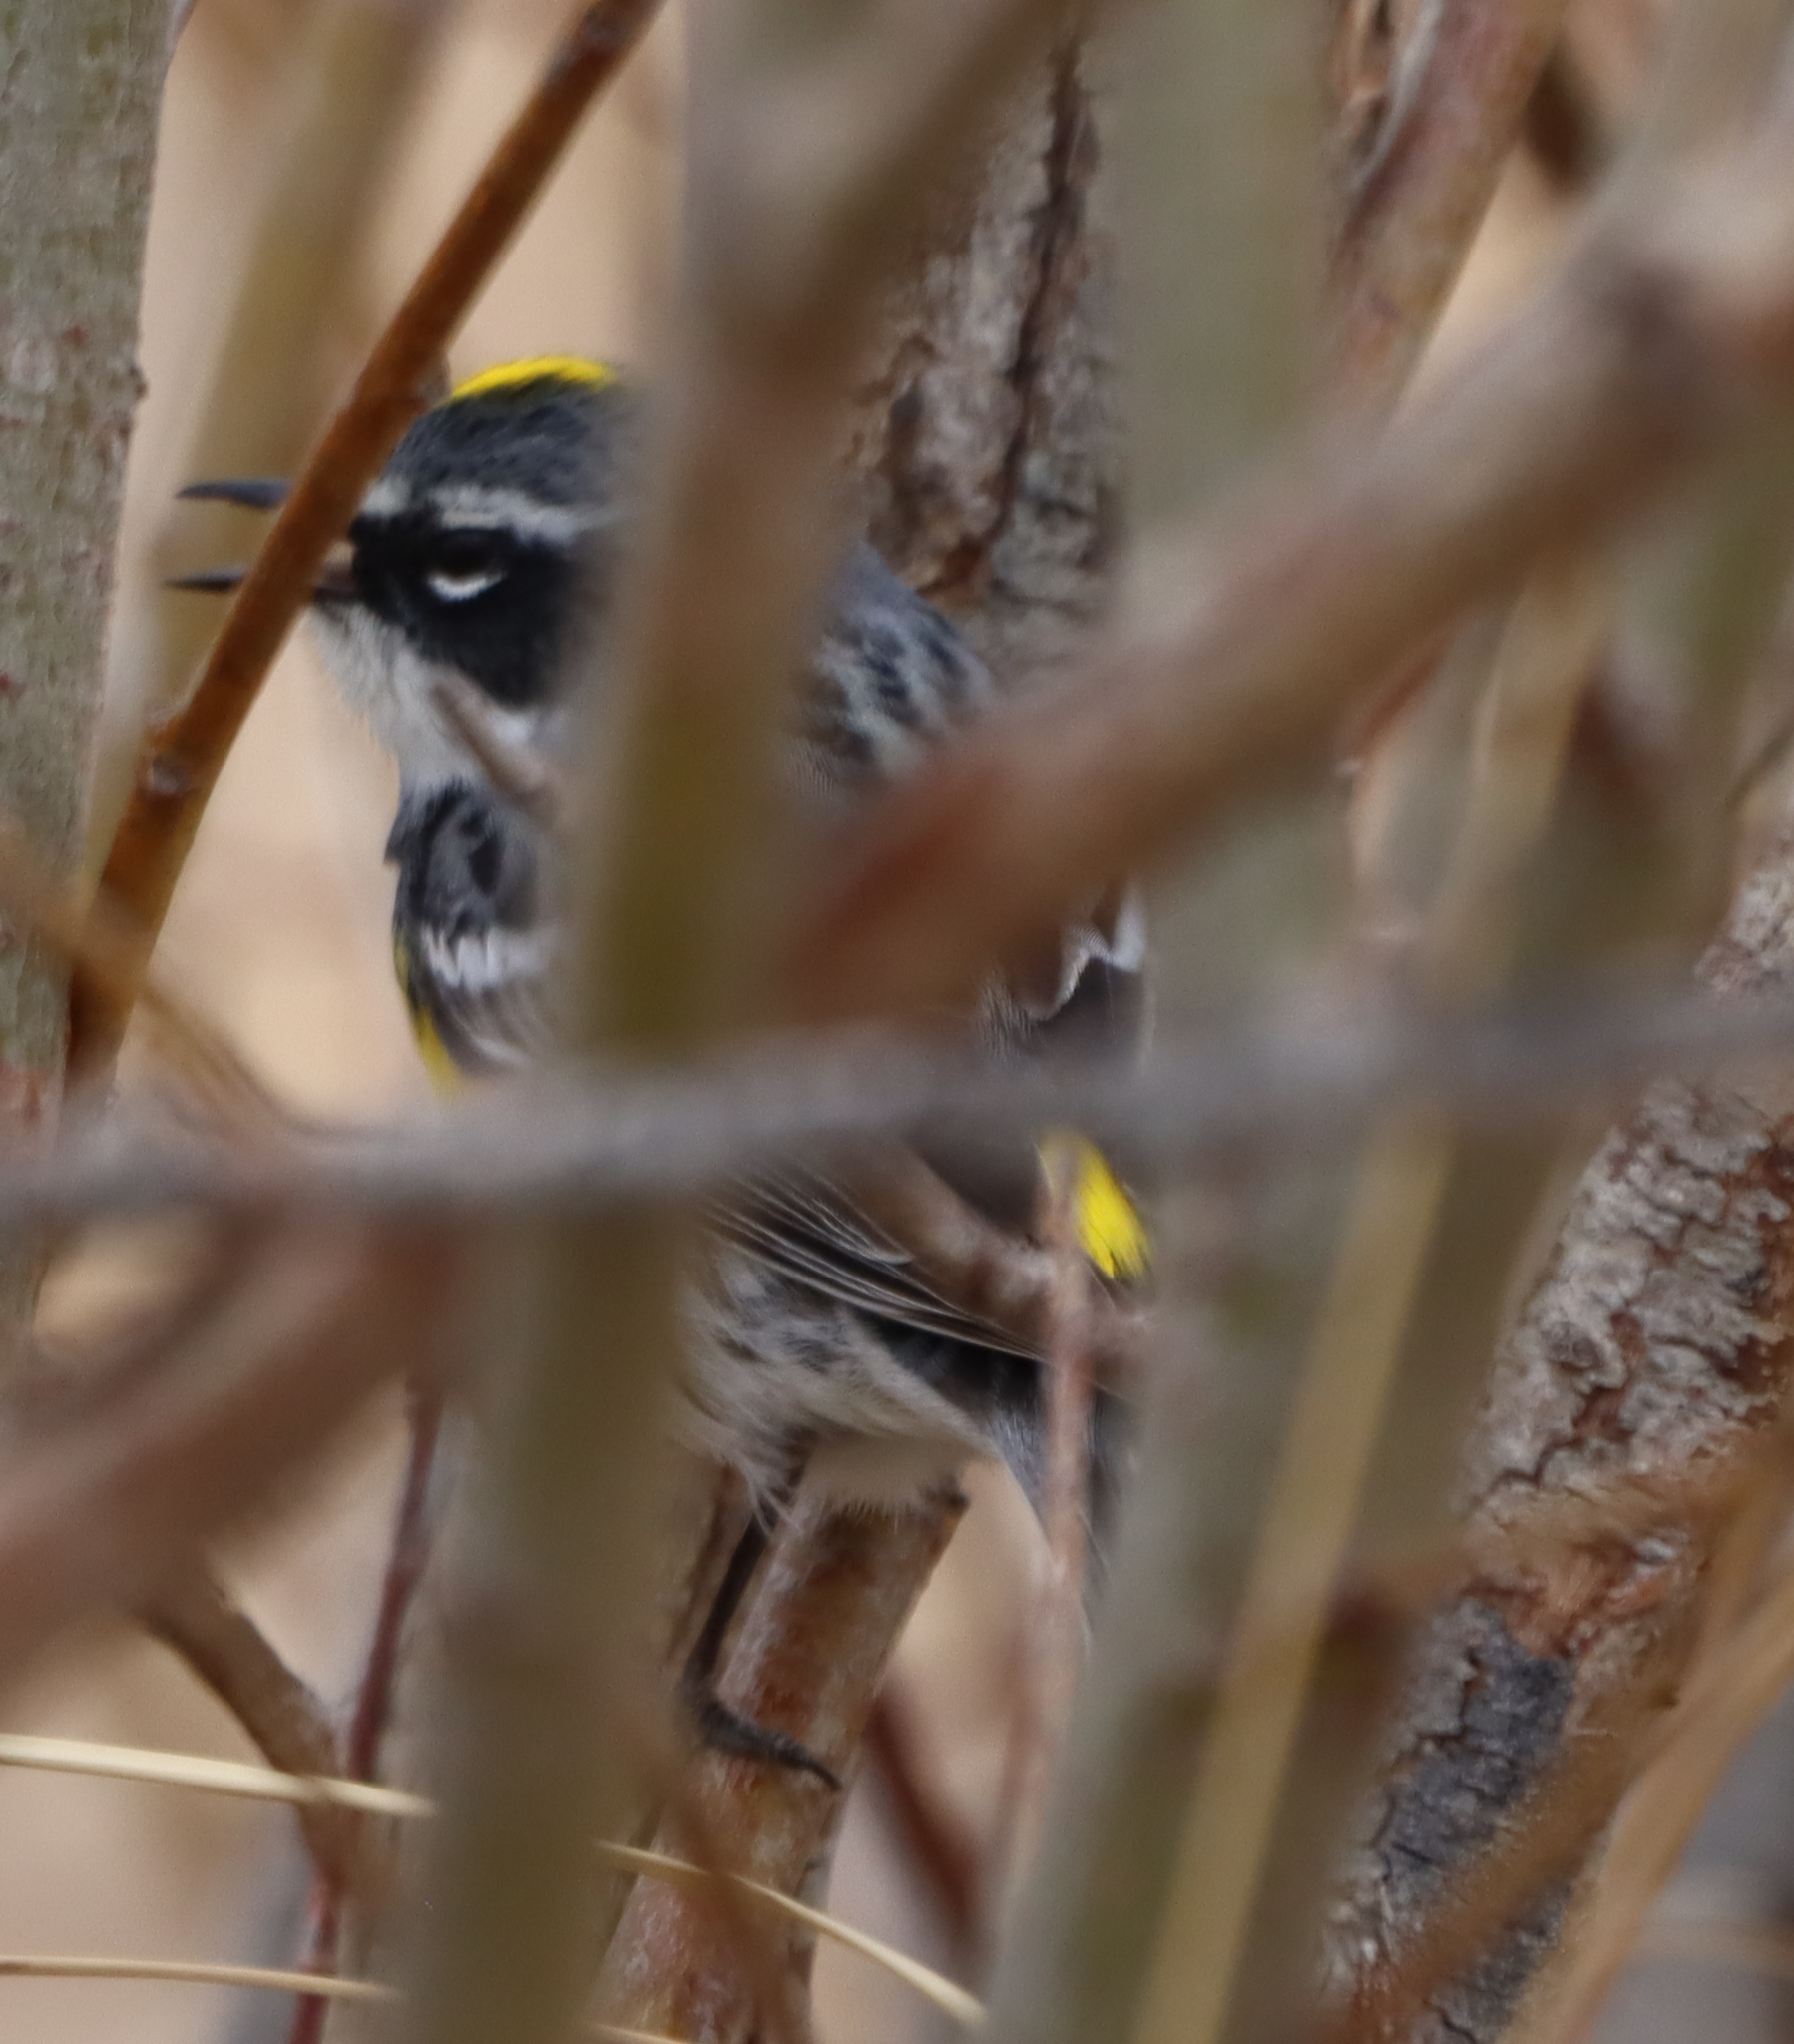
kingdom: Animalia
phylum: Chordata
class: Aves
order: Passeriformes
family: Parulidae
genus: Setophaga
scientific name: Setophaga coronata
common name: Myrtle warbler
